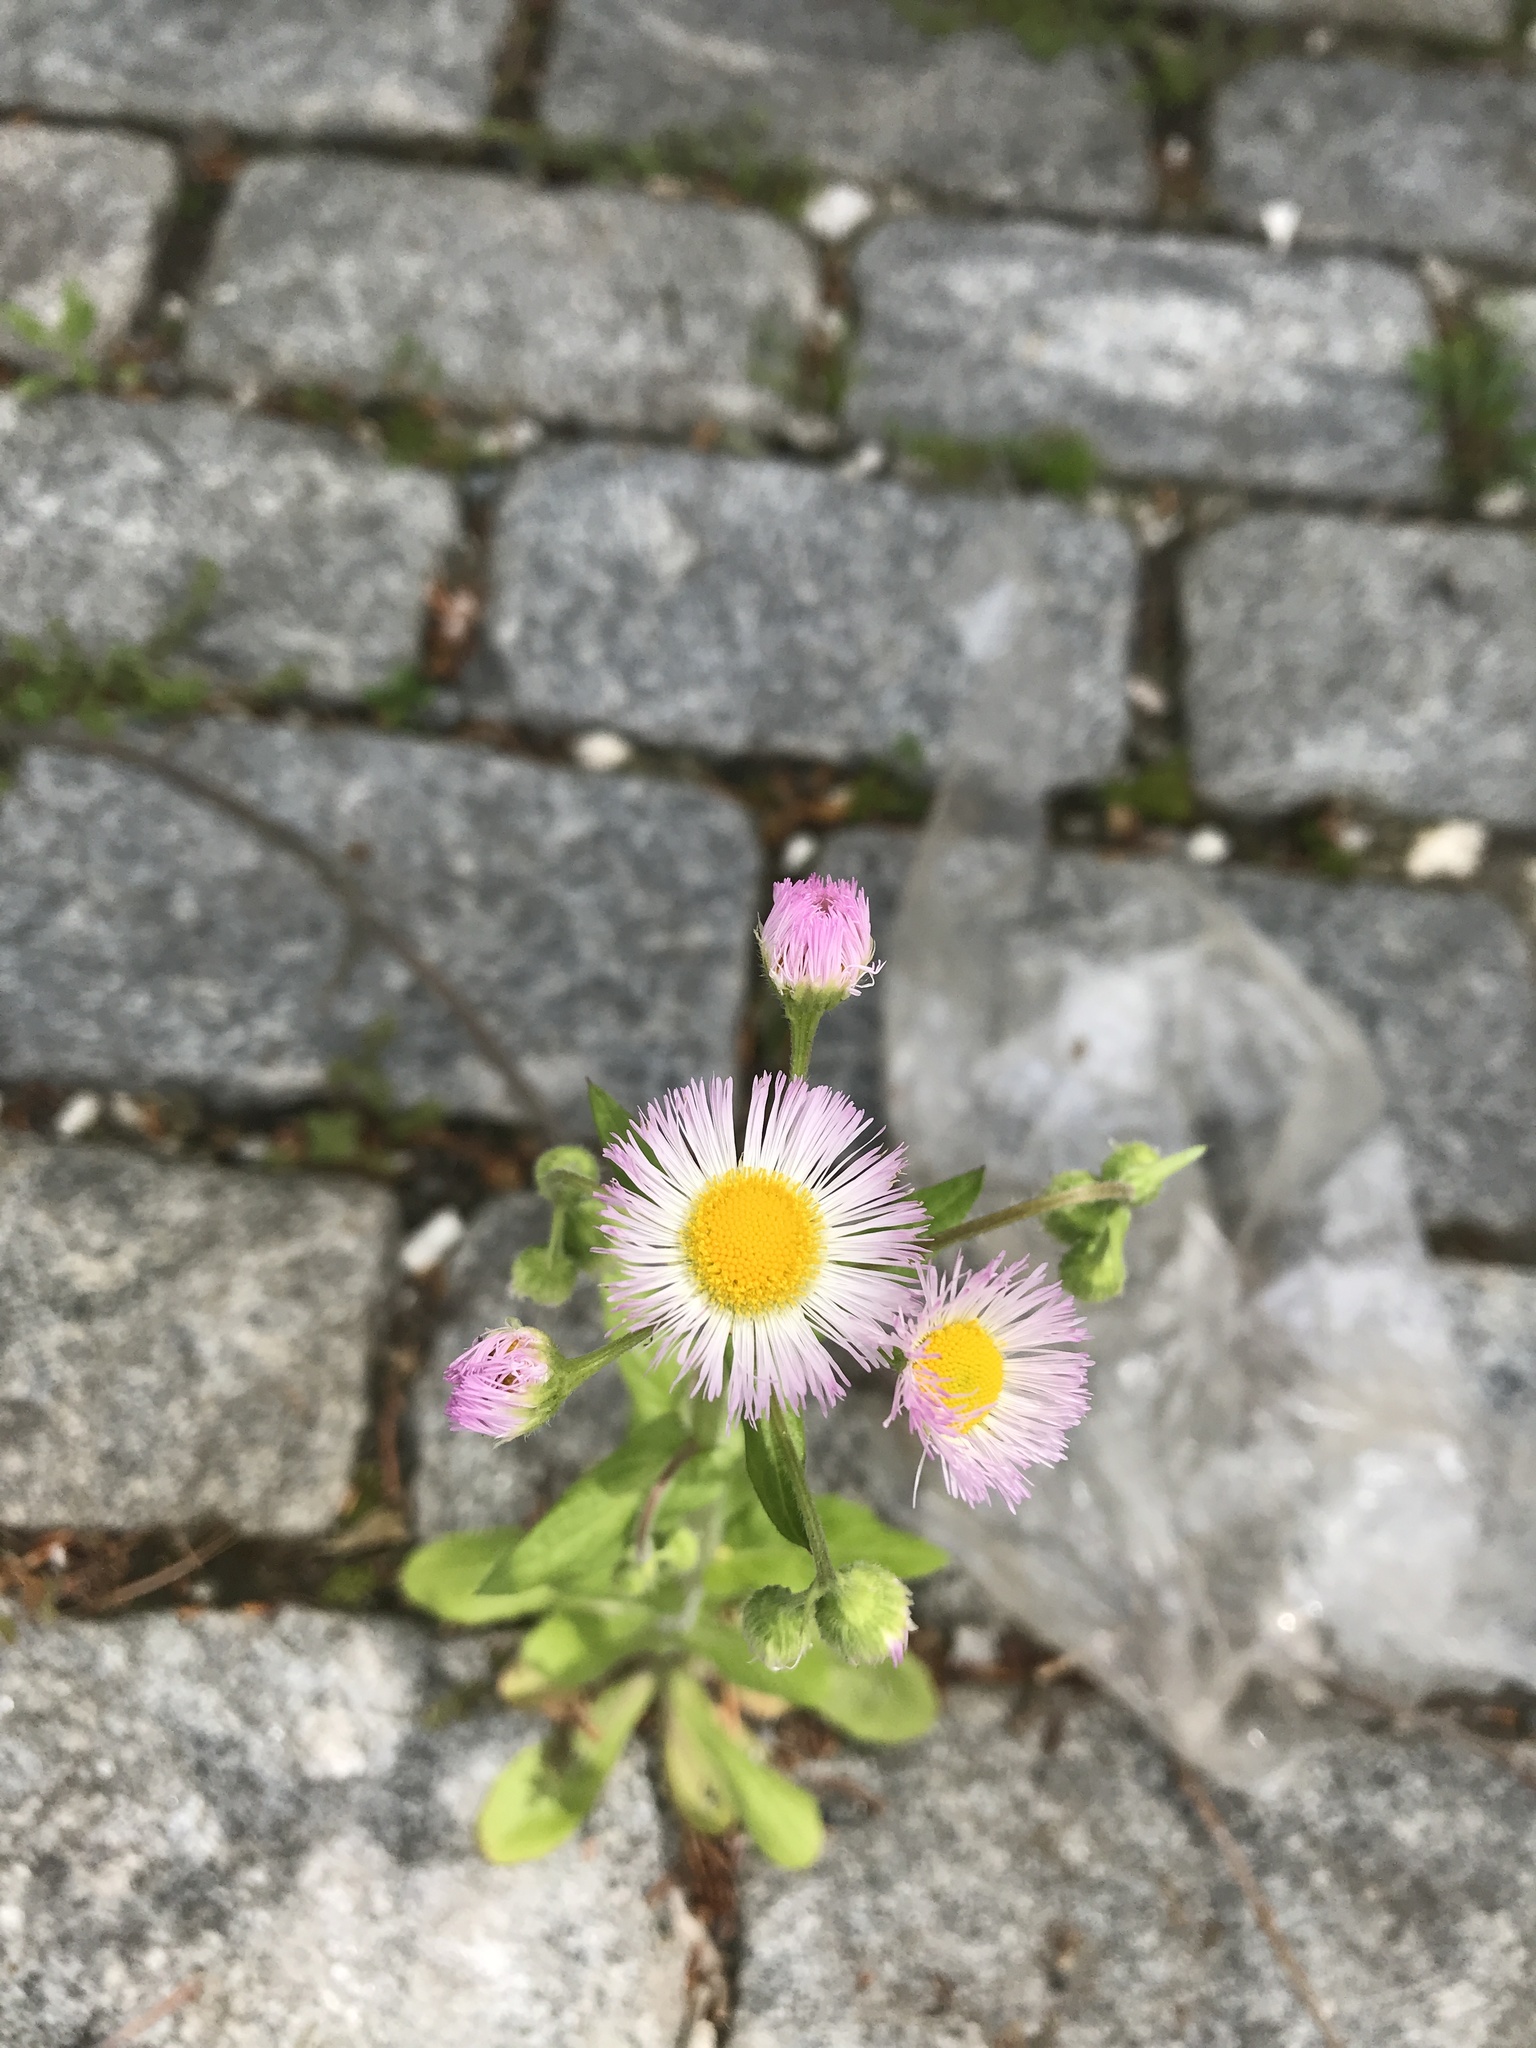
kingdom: Plantae
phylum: Tracheophyta
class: Magnoliopsida
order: Asterales
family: Asteraceae
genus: Erigeron
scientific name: Erigeron philadelphicus
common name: Robin's-plantain
